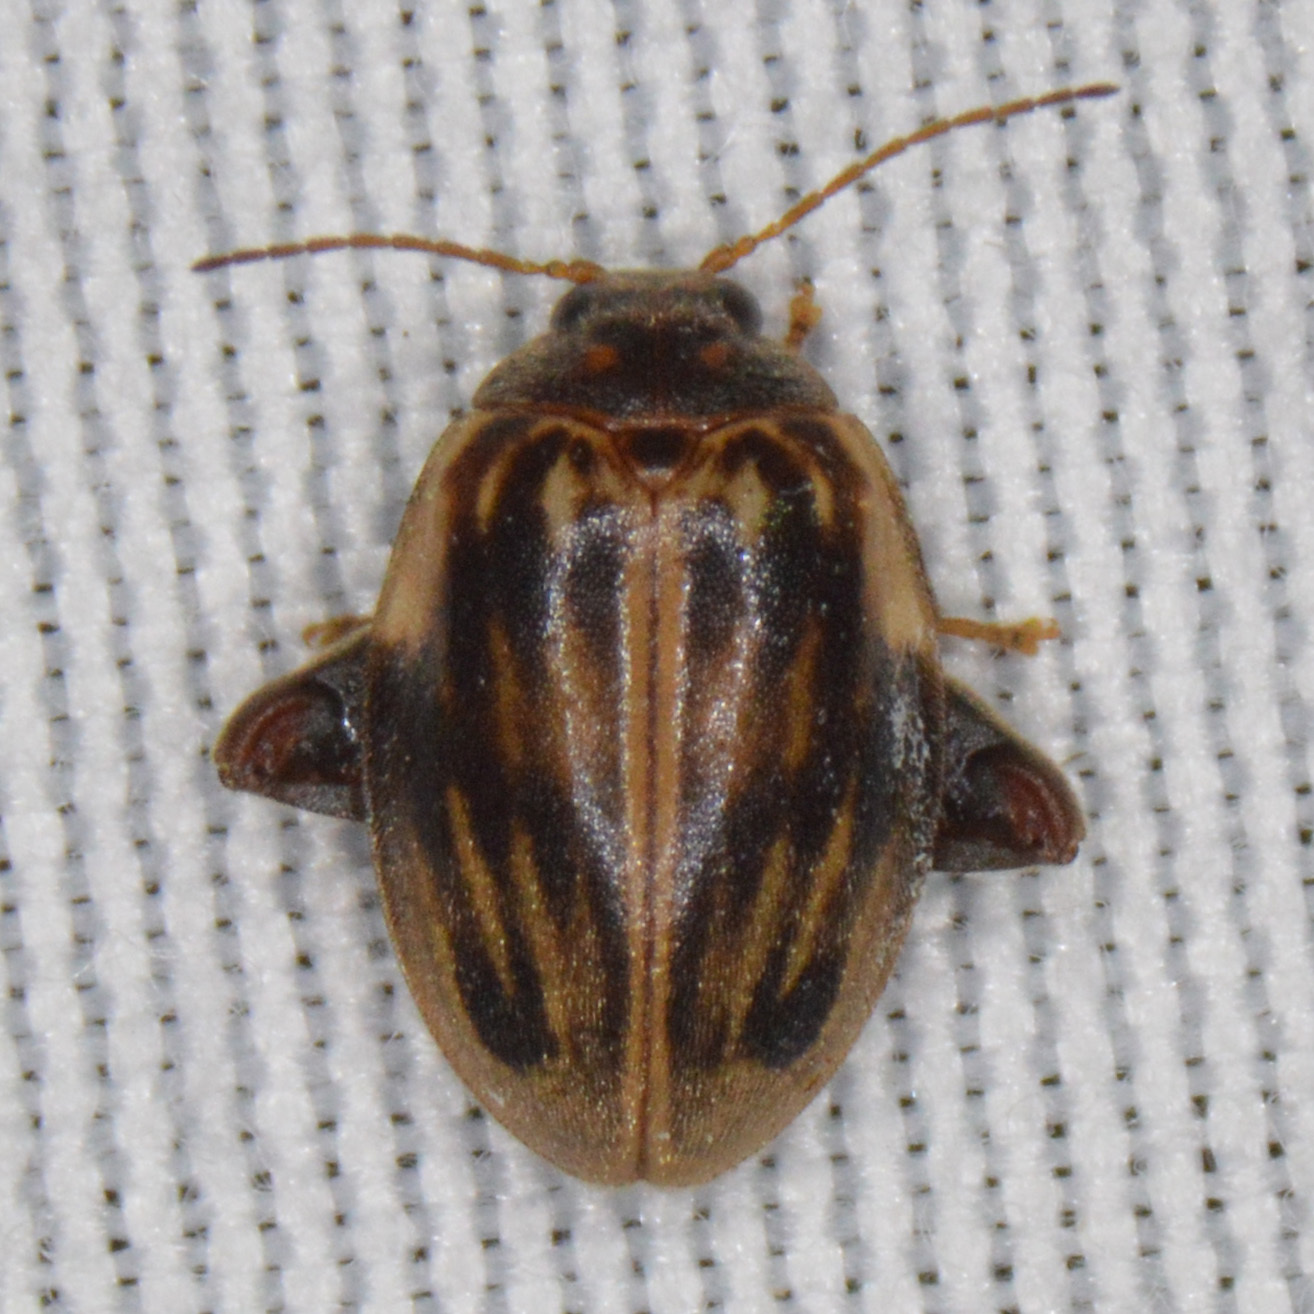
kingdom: Animalia
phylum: Arthropoda
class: Insecta
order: Coleoptera
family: Scirtidae
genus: Ora
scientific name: Ora texana
